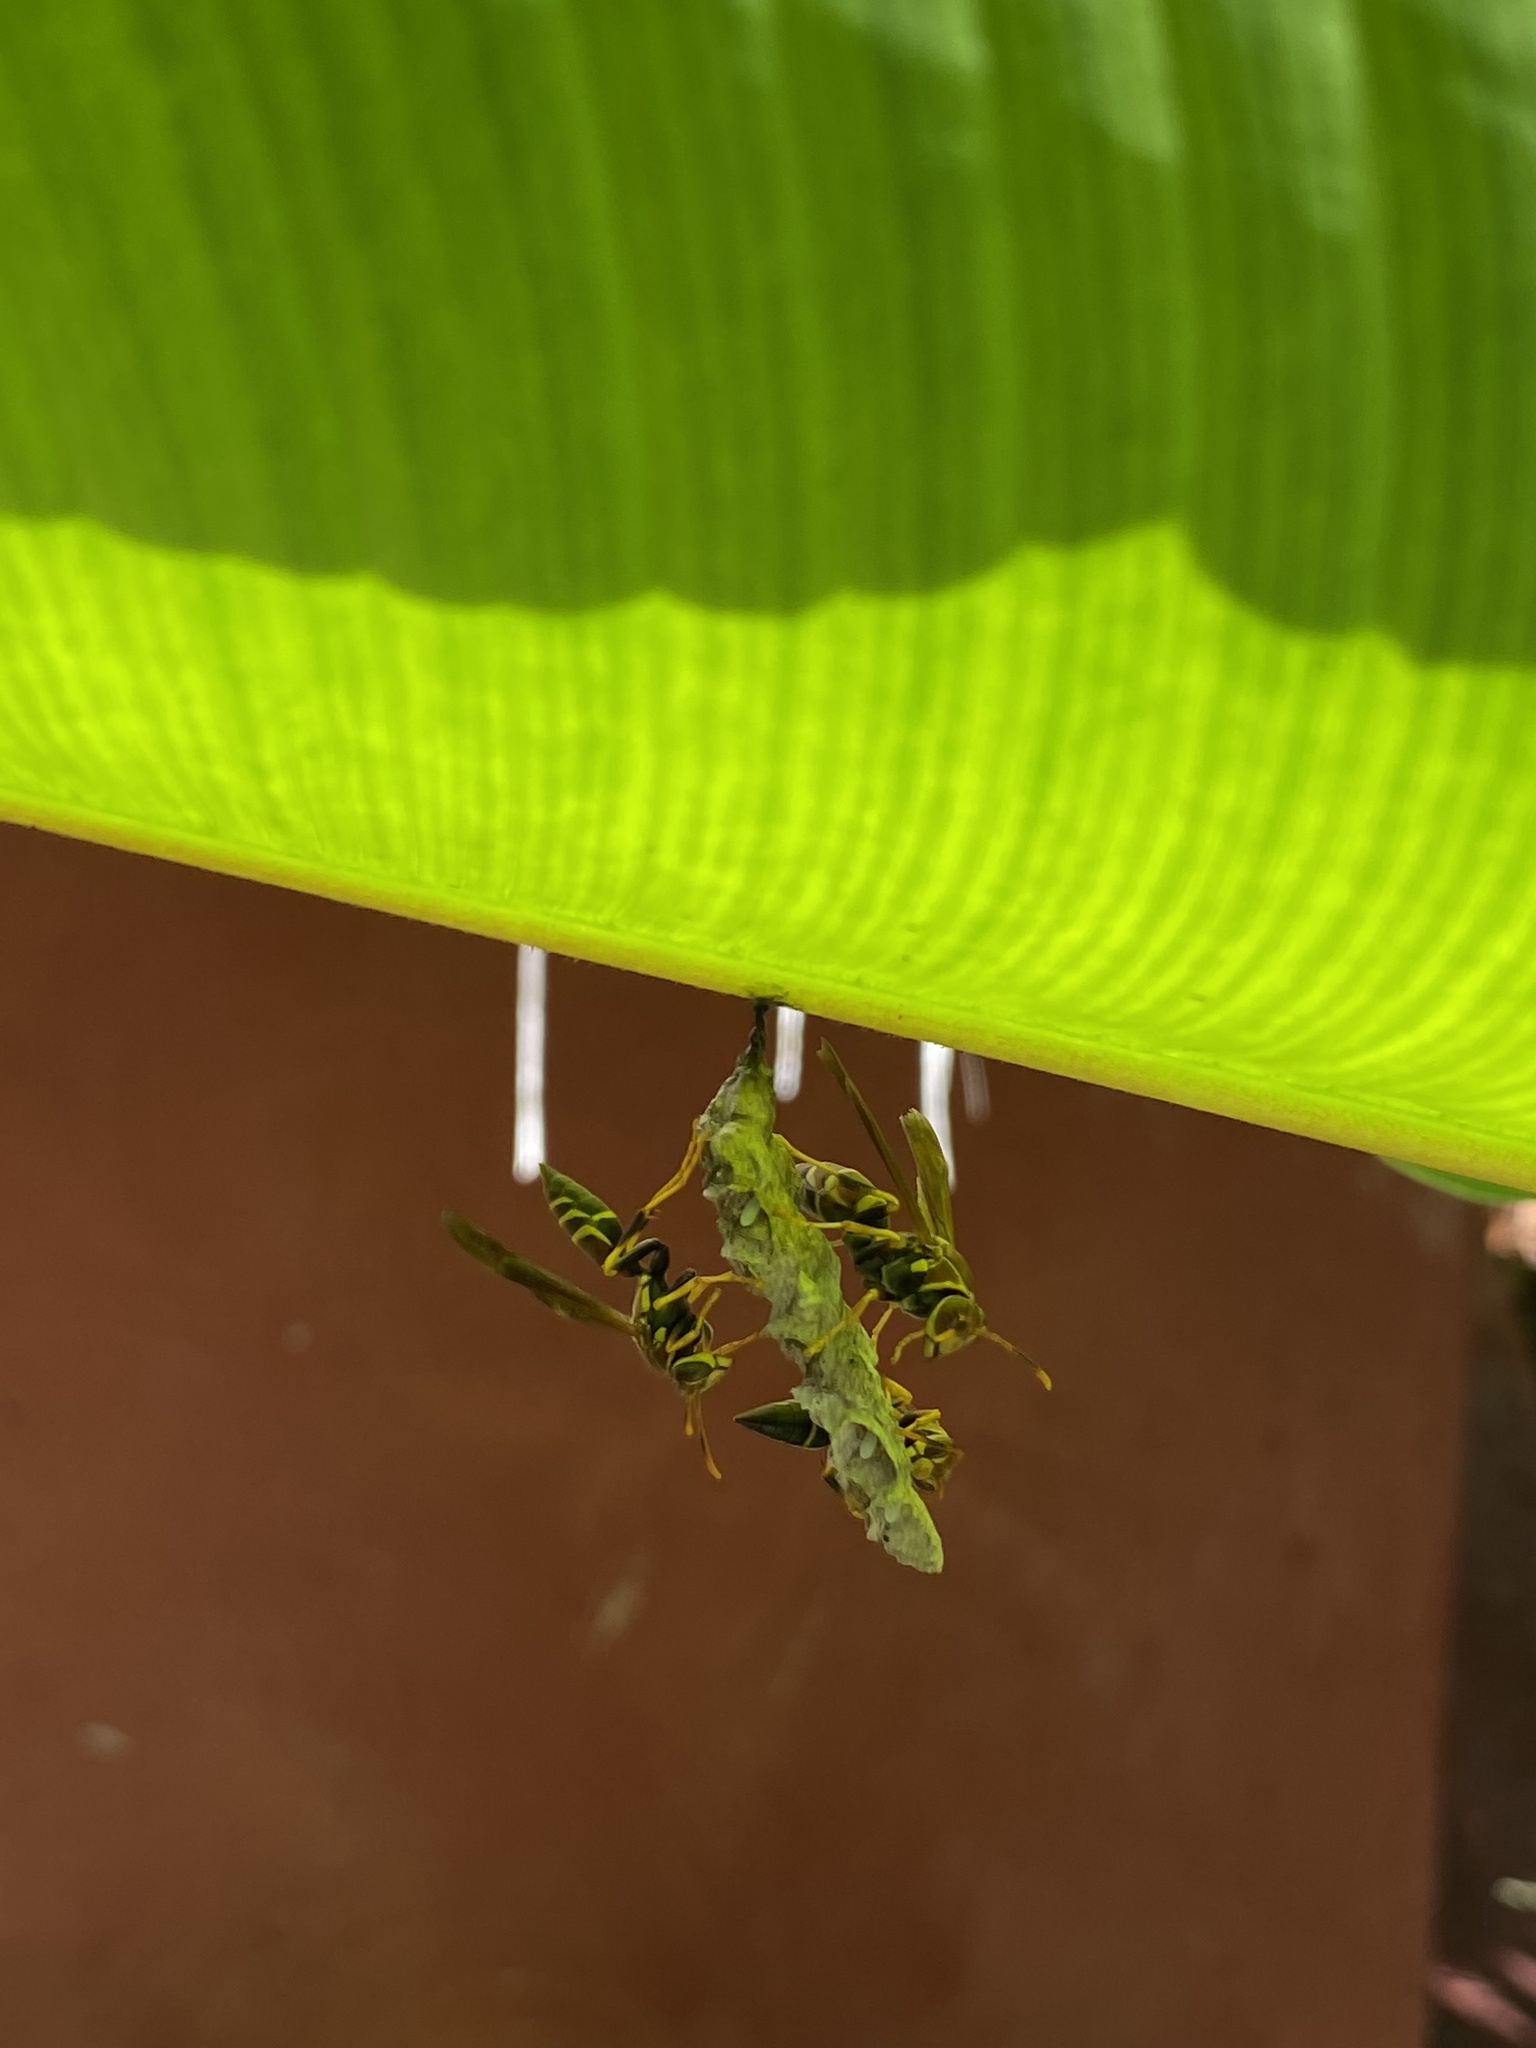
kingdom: Animalia
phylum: Arthropoda
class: Insecta
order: Hymenoptera
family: Eumenidae
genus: Polistes
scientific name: Polistes instabilis
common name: Unstable paper wasp
